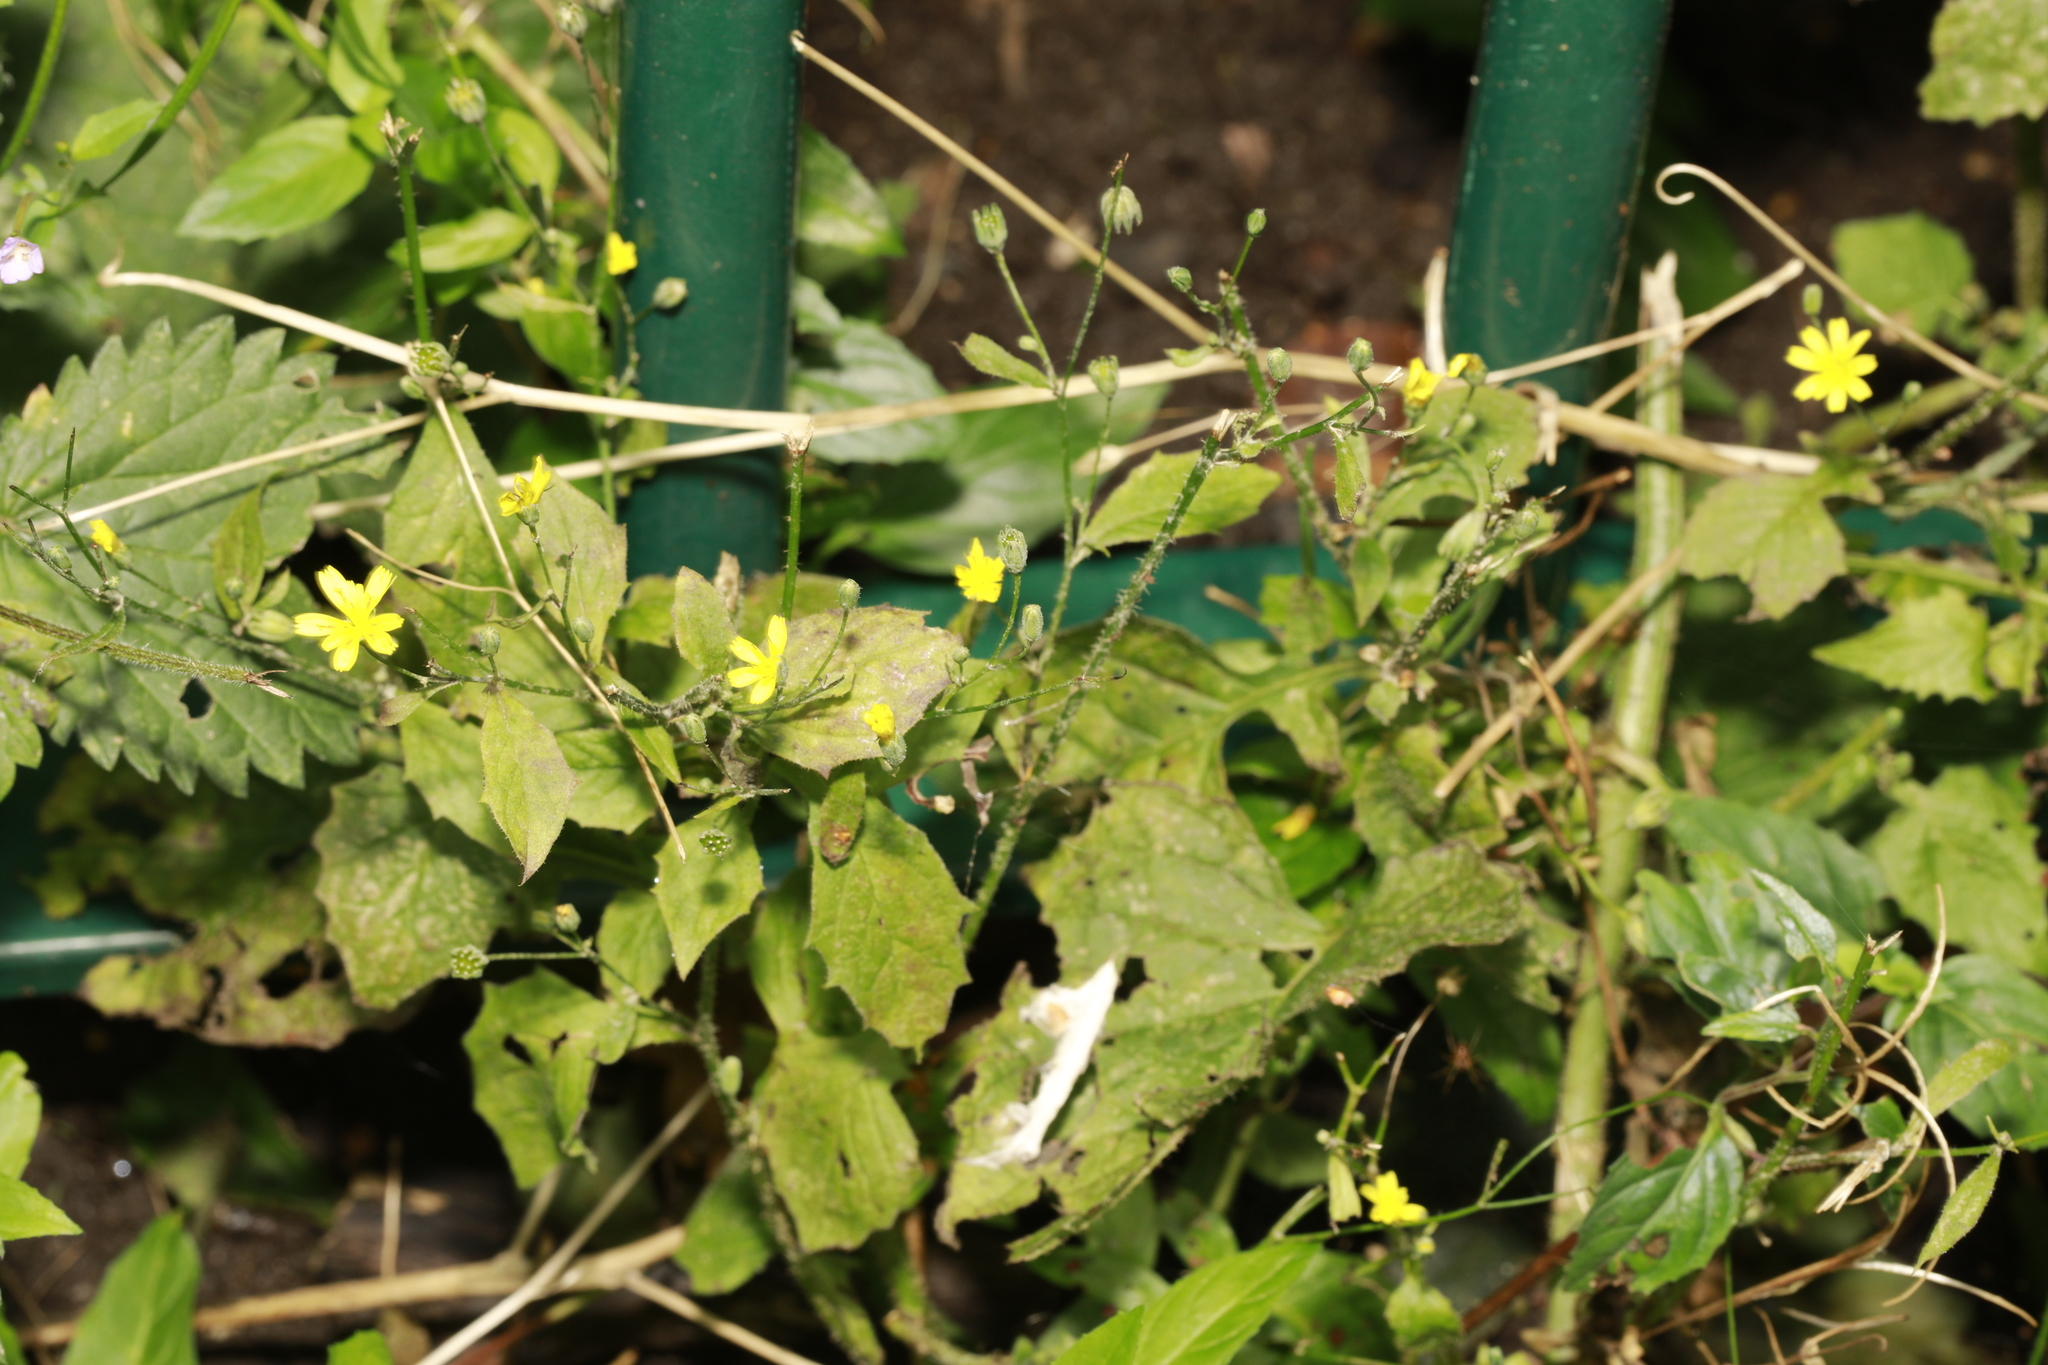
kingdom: Plantae
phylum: Tracheophyta
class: Magnoliopsida
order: Asterales
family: Asteraceae
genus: Lapsana
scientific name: Lapsana communis
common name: Nipplewort
